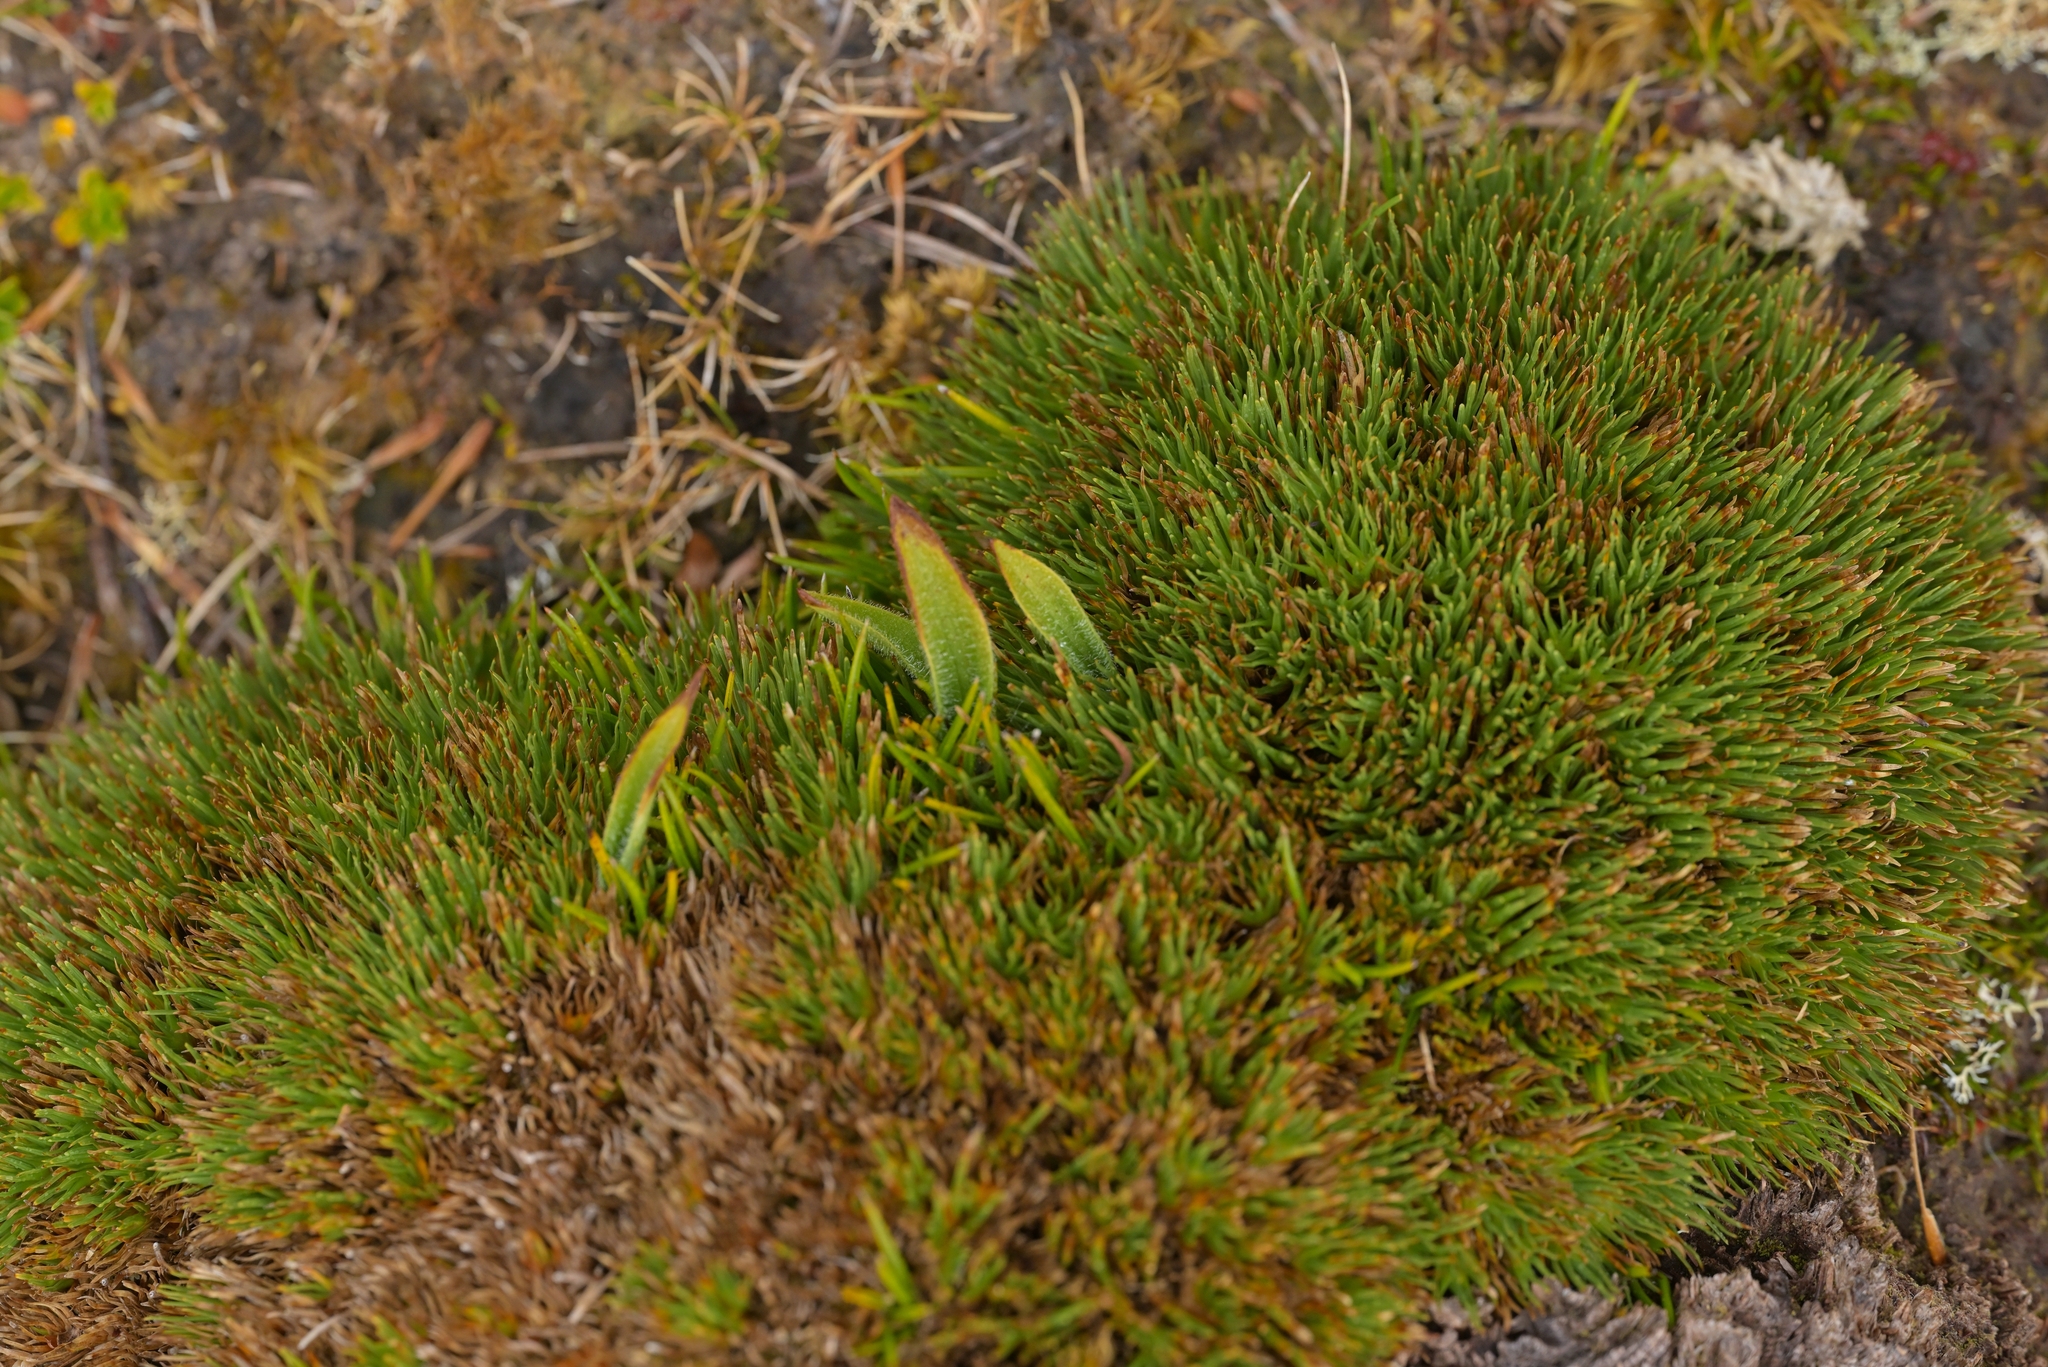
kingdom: Plantae
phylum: Tracheophyta
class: Liliopsida
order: Poales
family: Cyperaceae
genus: Oreobolus
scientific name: Oreobolus pectinatus
